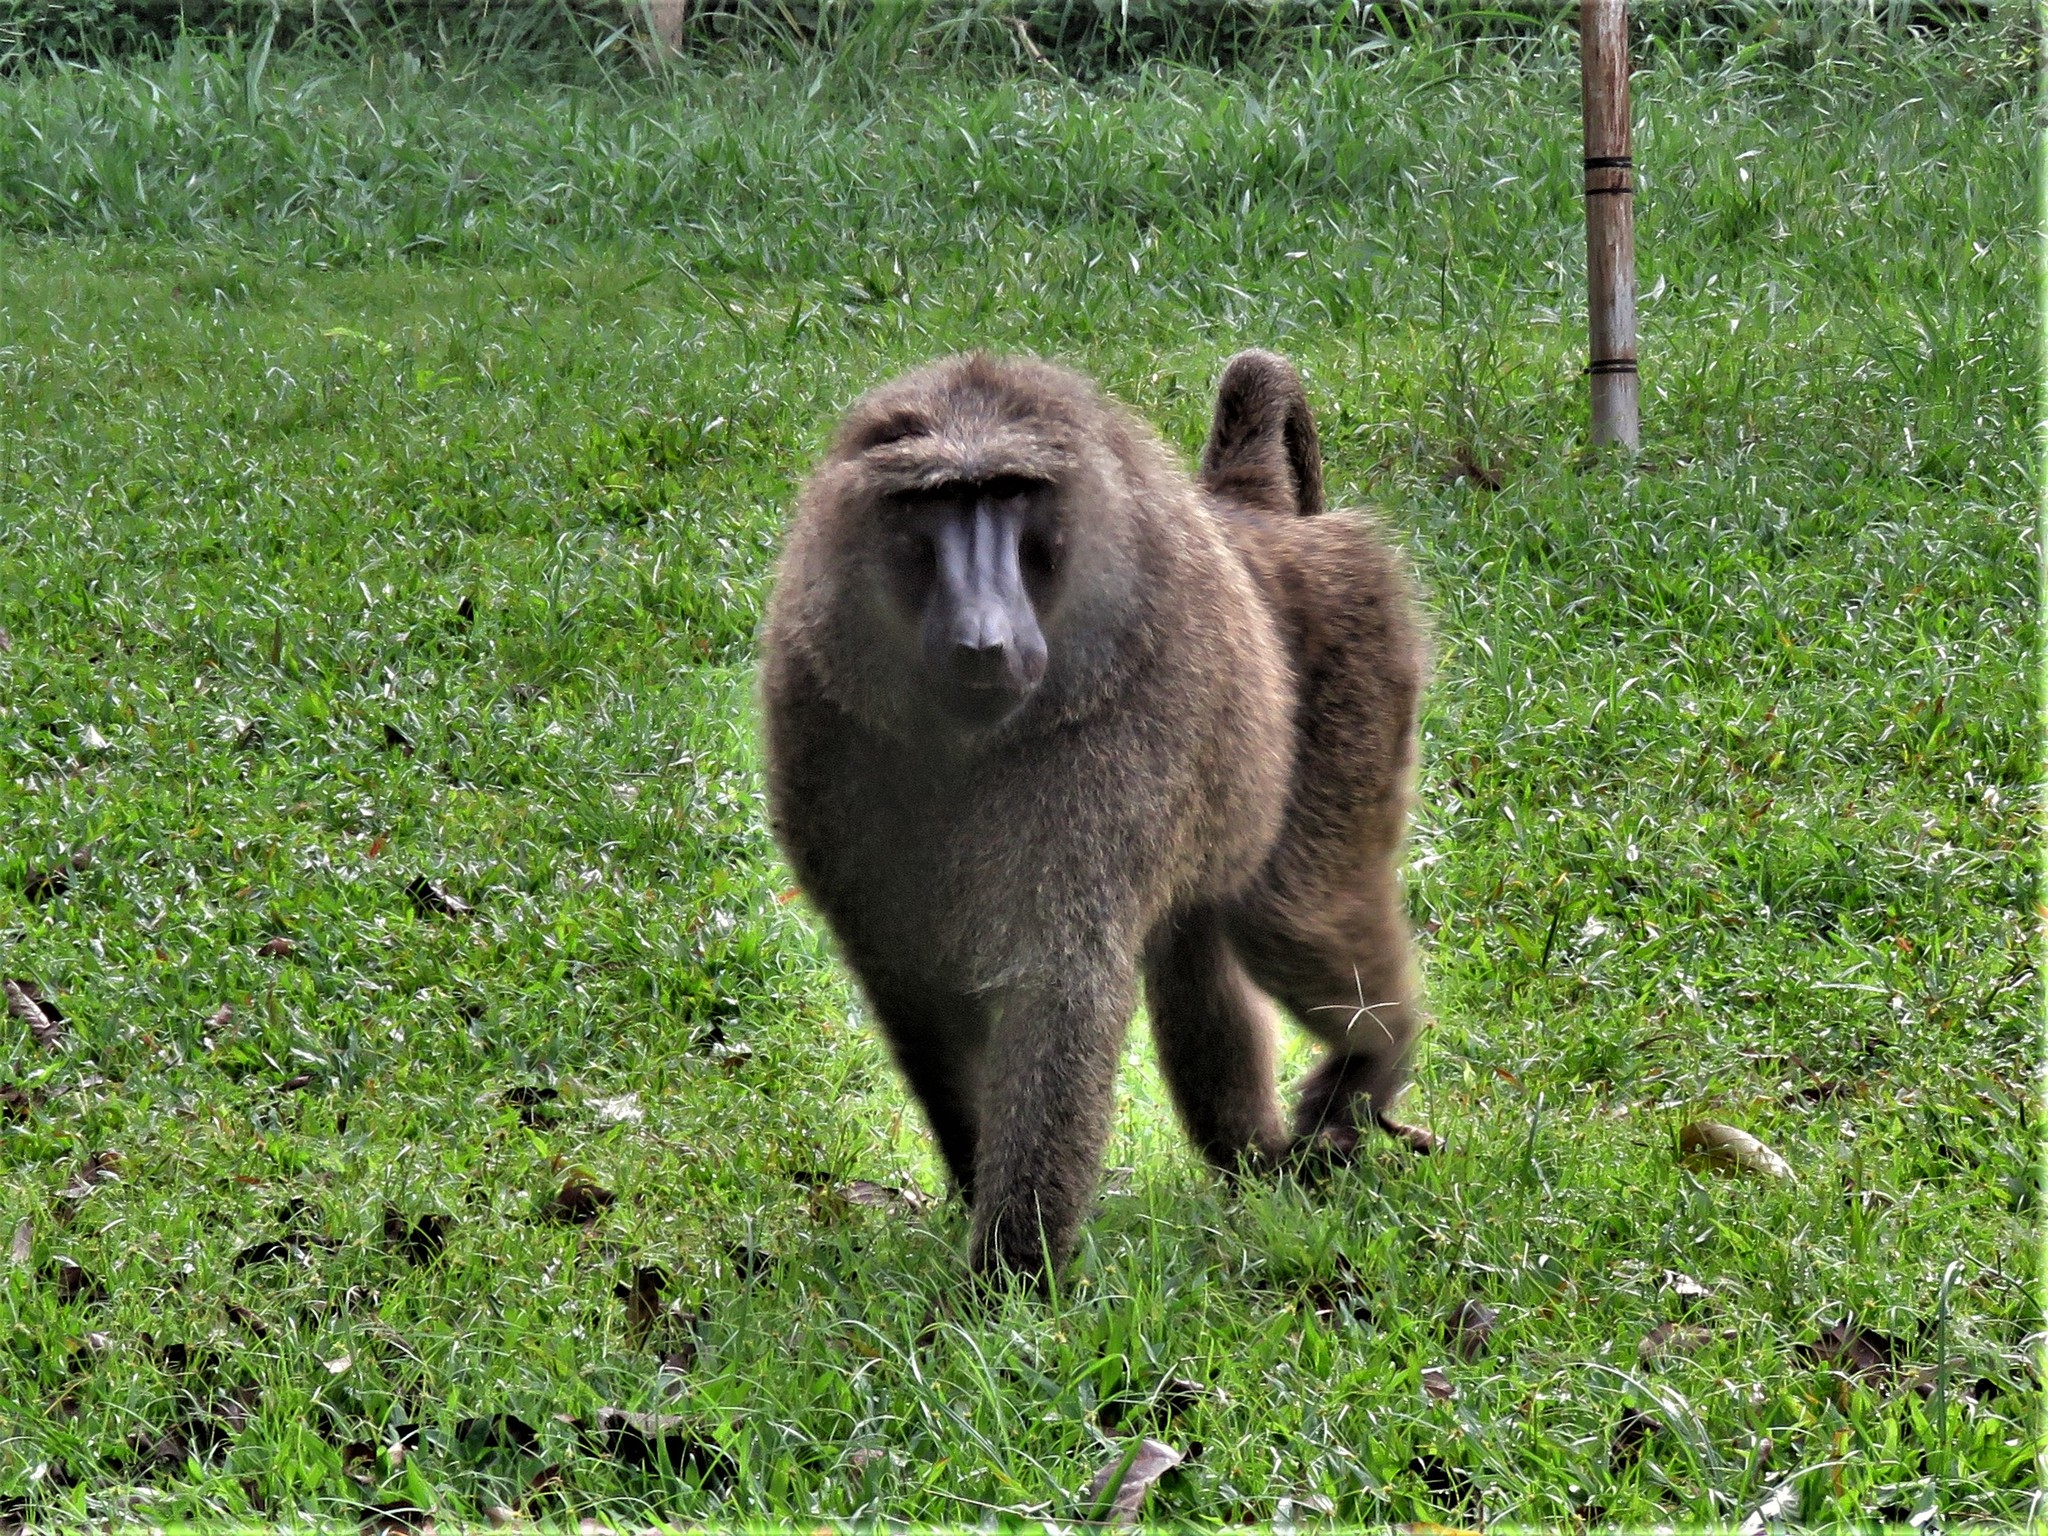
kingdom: Animalia
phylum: Chordata
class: Mammalia
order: Primates
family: Cercopithecidae
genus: Papio
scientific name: Papio anubis
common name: Olive baboon
